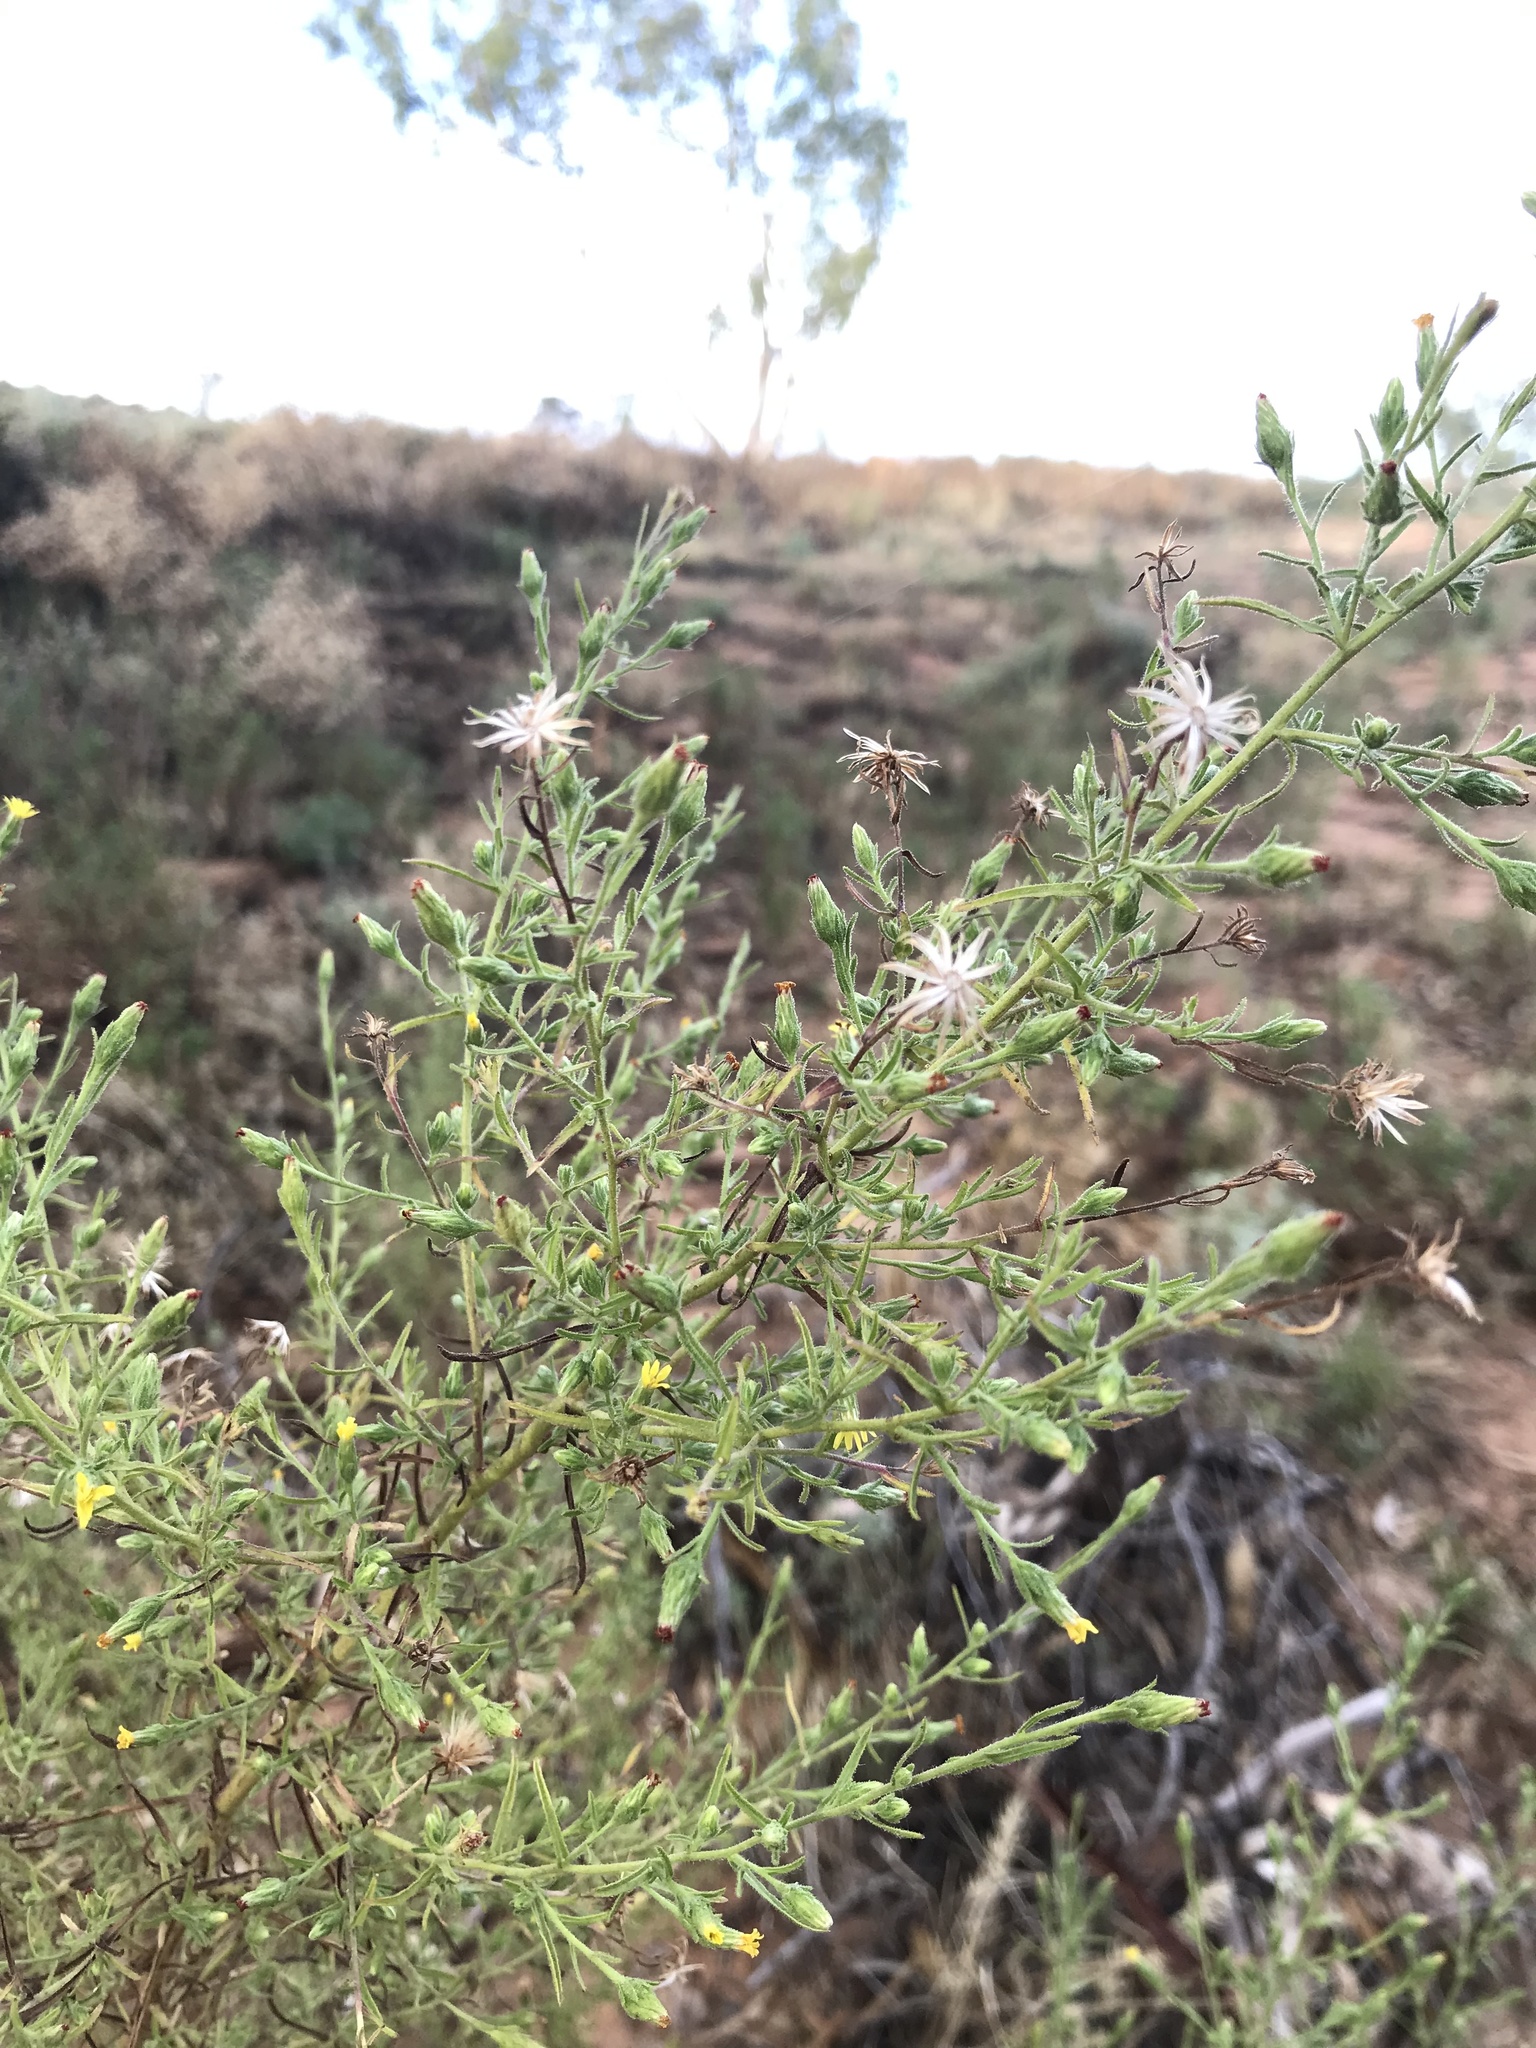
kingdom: Plantae
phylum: Tracheophyta
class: Magnoliopsida
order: Asterales
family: Asteraceae
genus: Dittrichia
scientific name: Dittrichia graveolens
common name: Stinking fleabane
